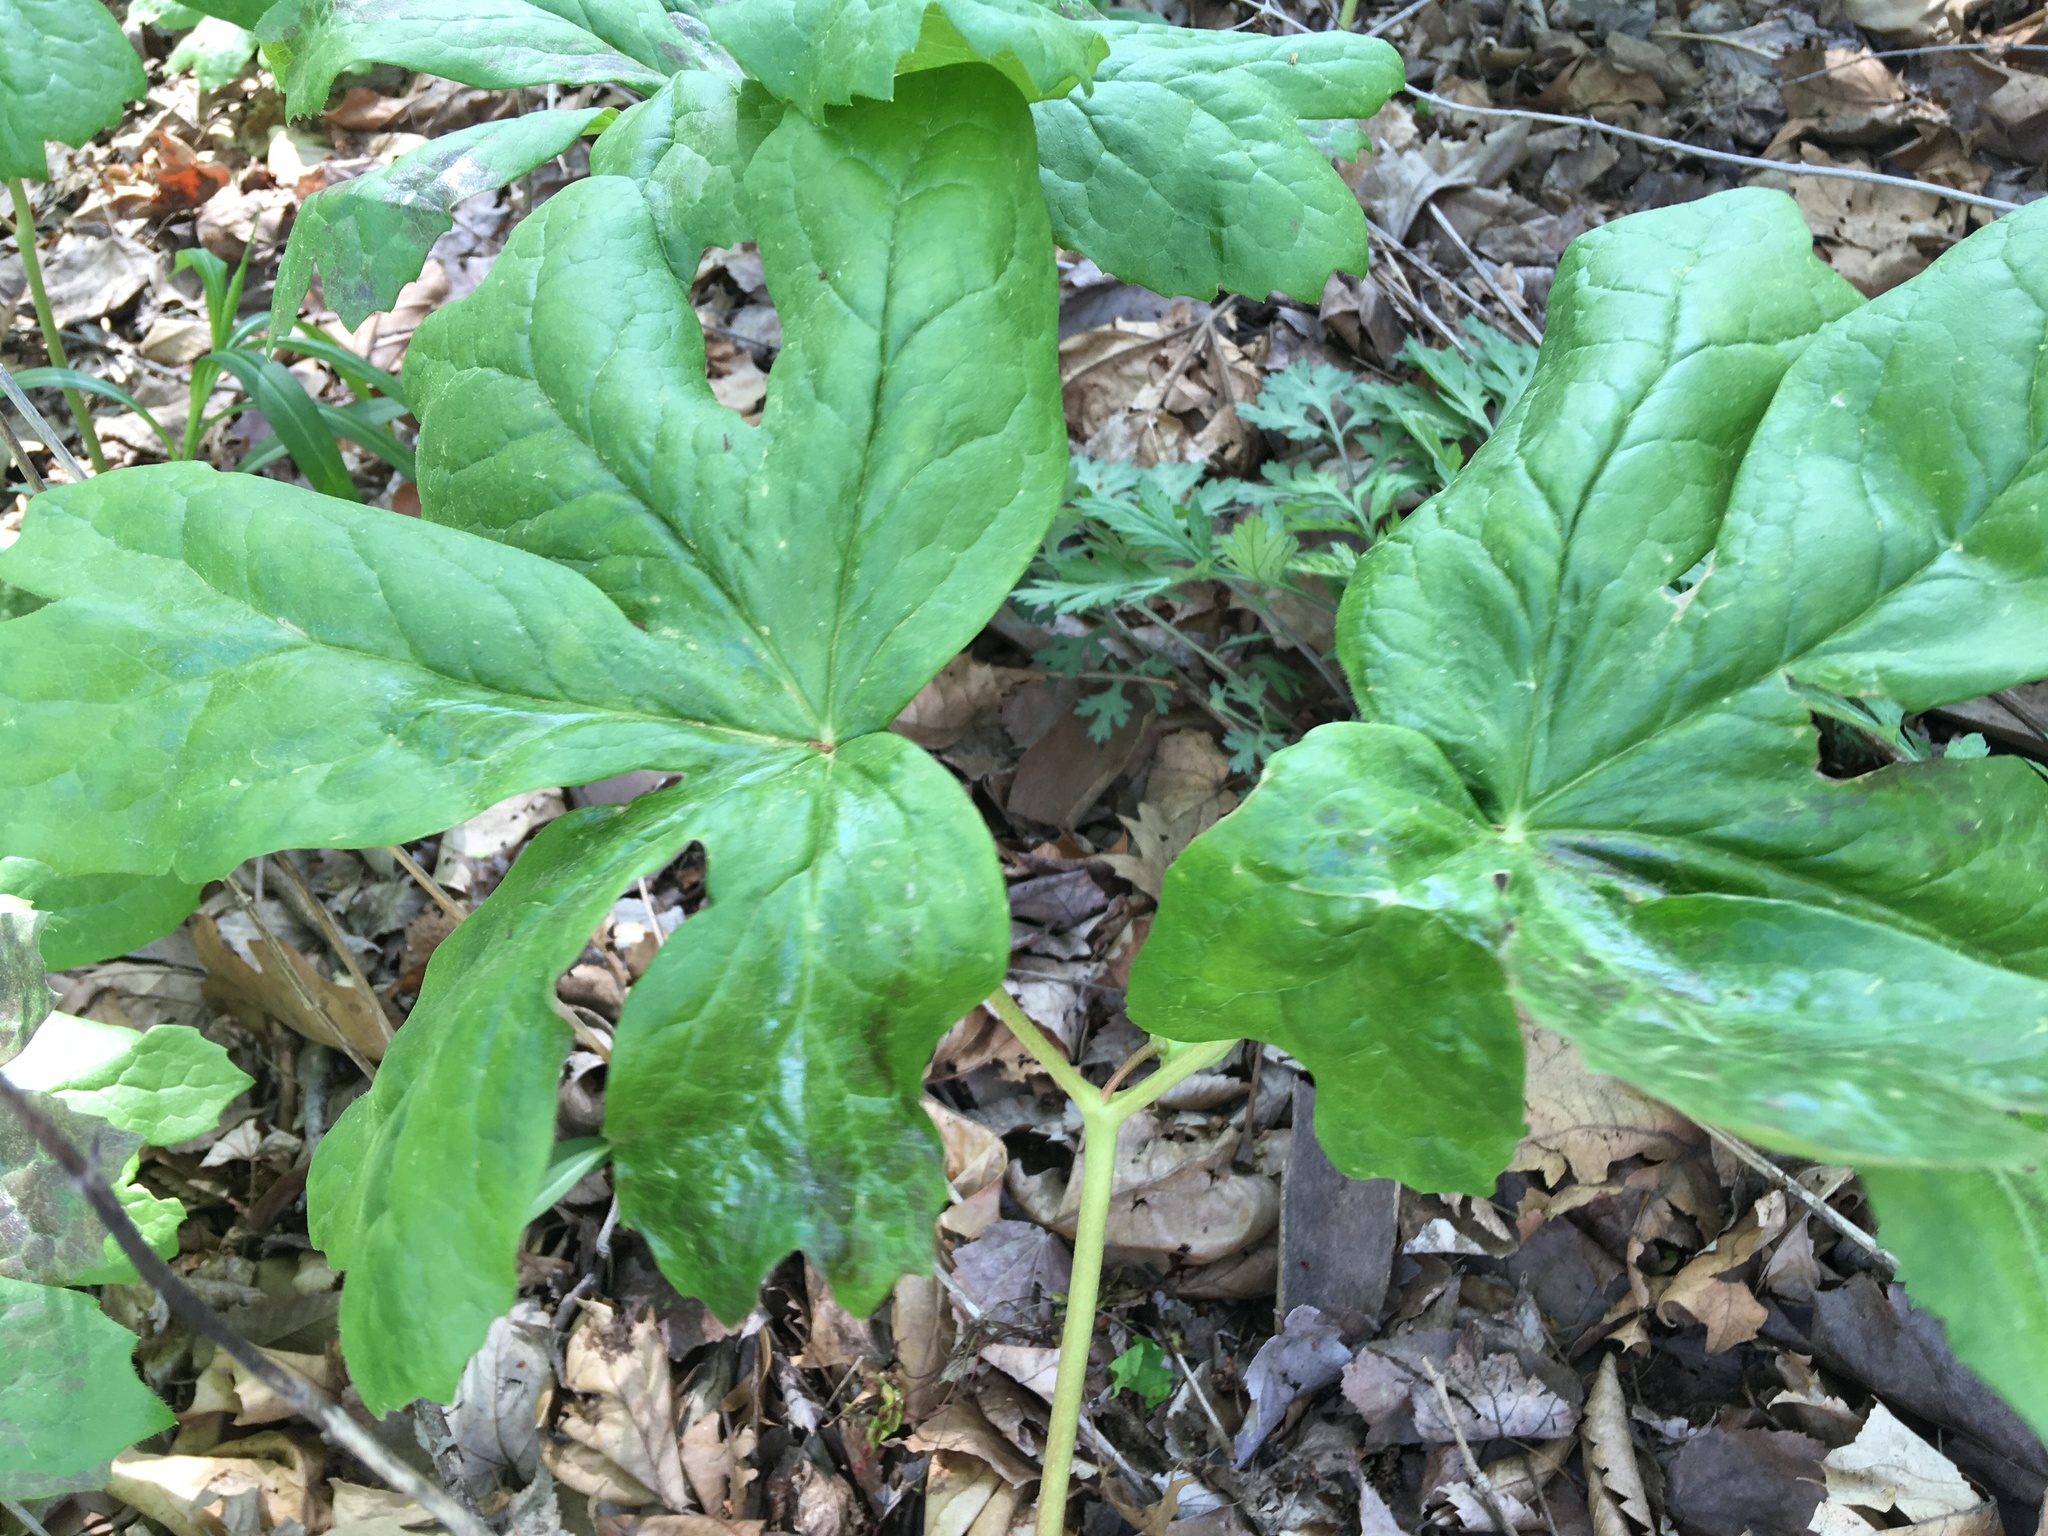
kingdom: Plantae
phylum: Tracheophyta
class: Magnoliopsida
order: Ranunculales
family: Berberidaceae
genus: Podophyllum
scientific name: Podophyllum peltatum
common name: Wild mandrake
